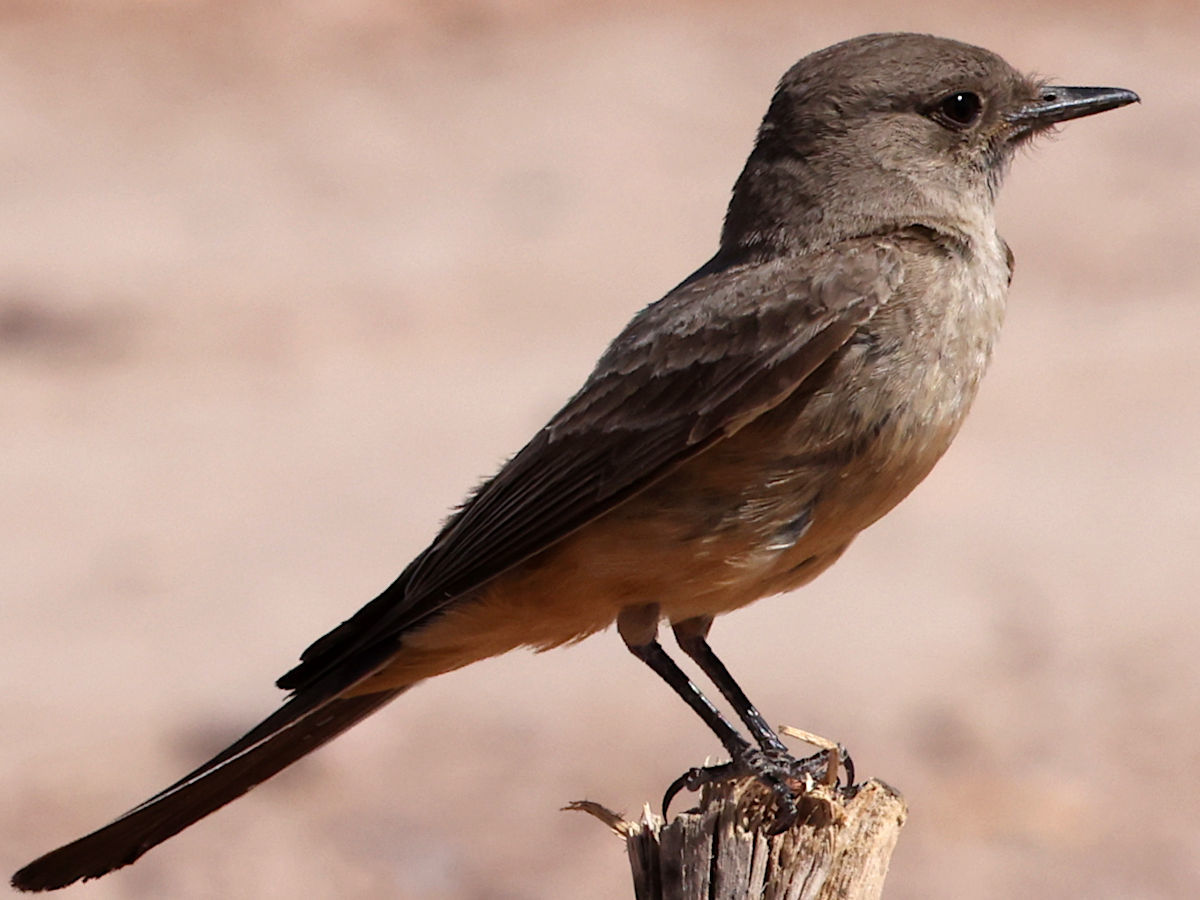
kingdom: Animalia
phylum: Chordata
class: Aves
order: Passeriformes
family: Tyrannidae
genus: Sayornis
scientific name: Sayornis saya
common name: Say's phoebe
